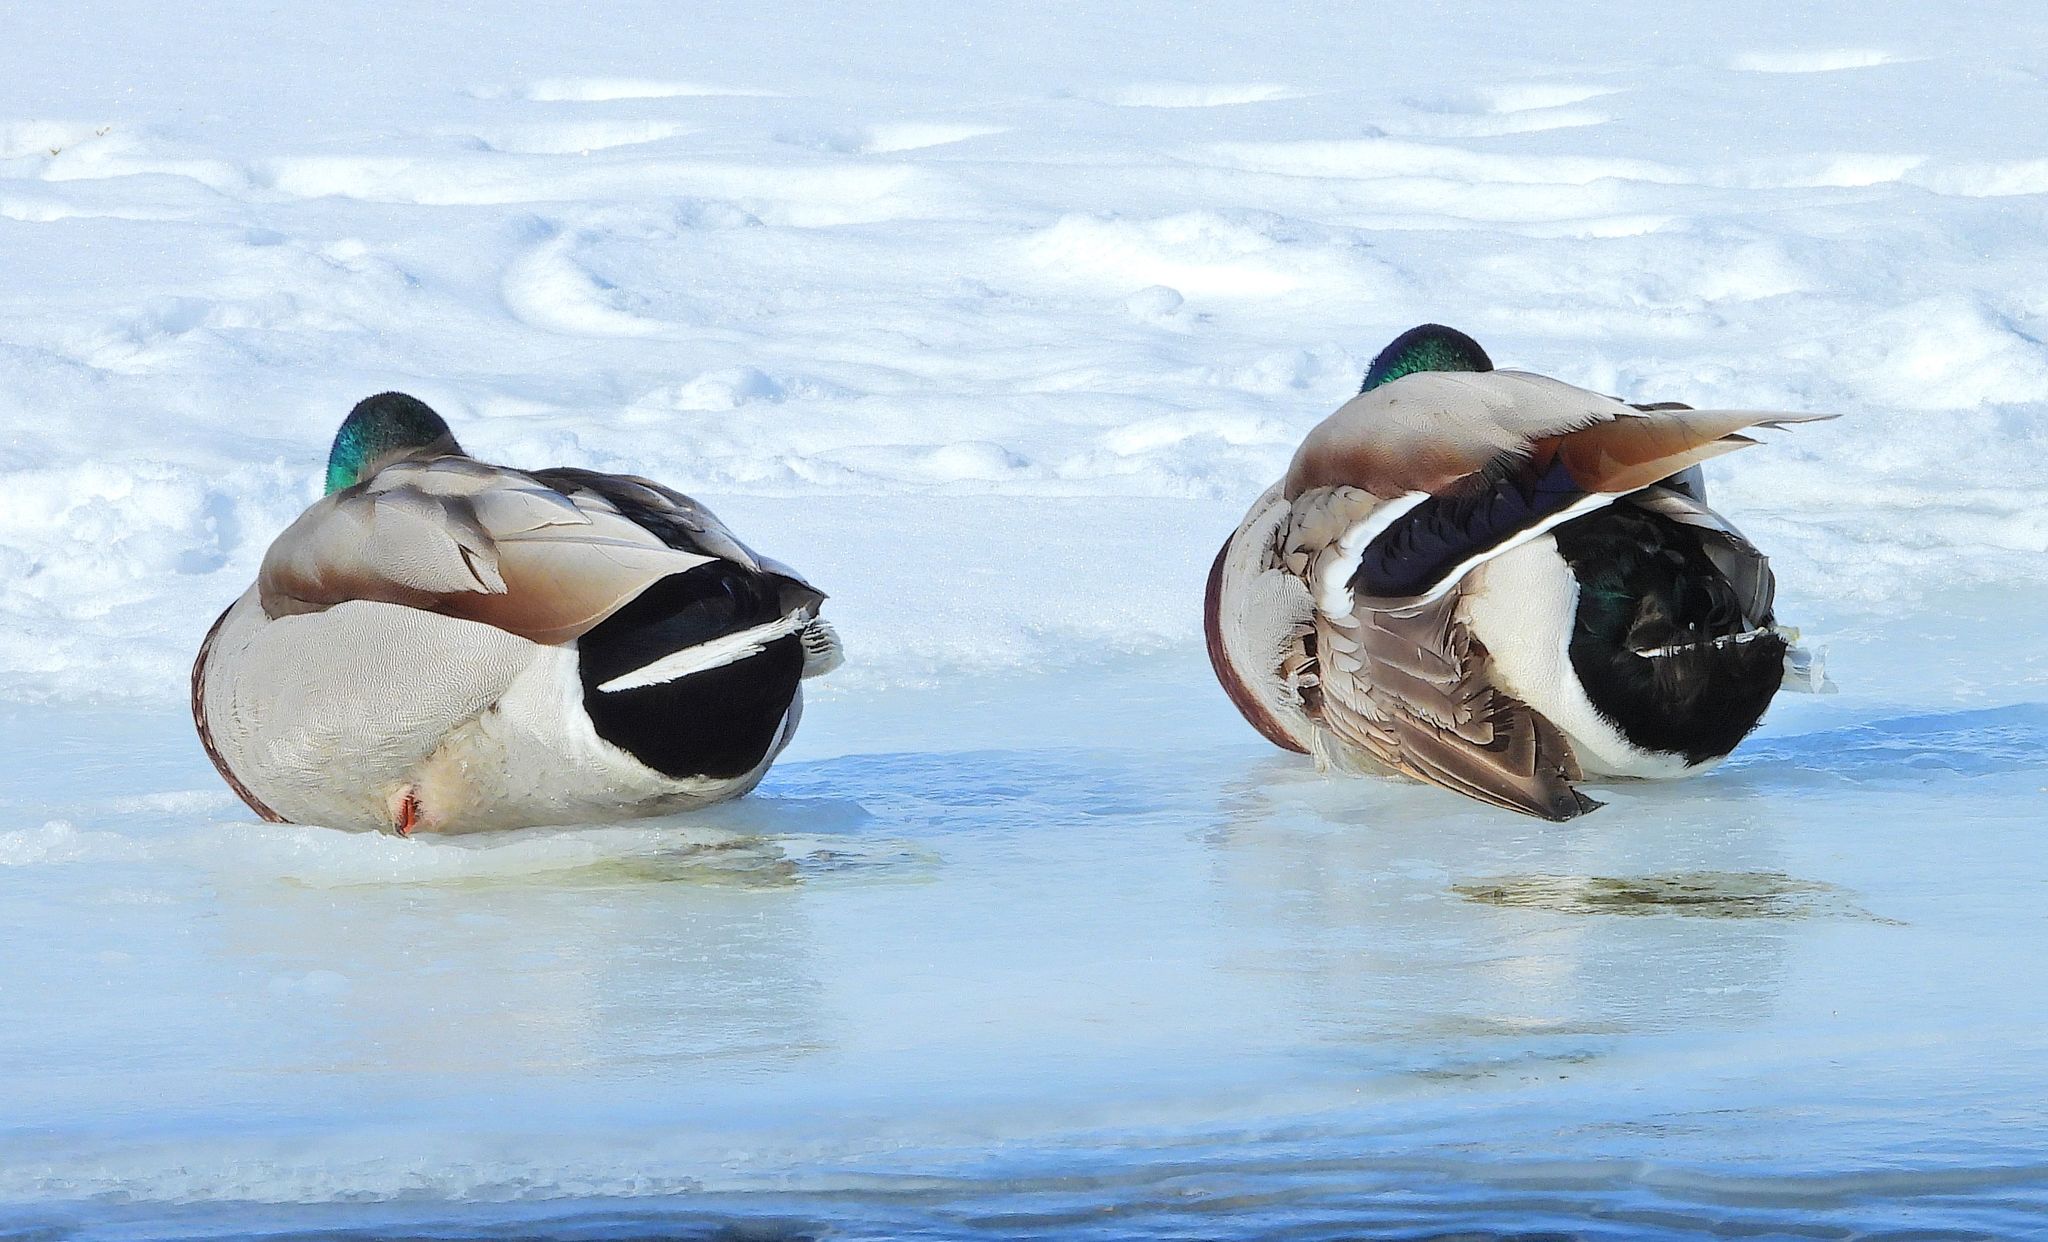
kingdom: Animalia
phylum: Chordata
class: Aves
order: Anseriformes
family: Anatidae
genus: Anas
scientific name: Anas platyrhynchos
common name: Mallard
